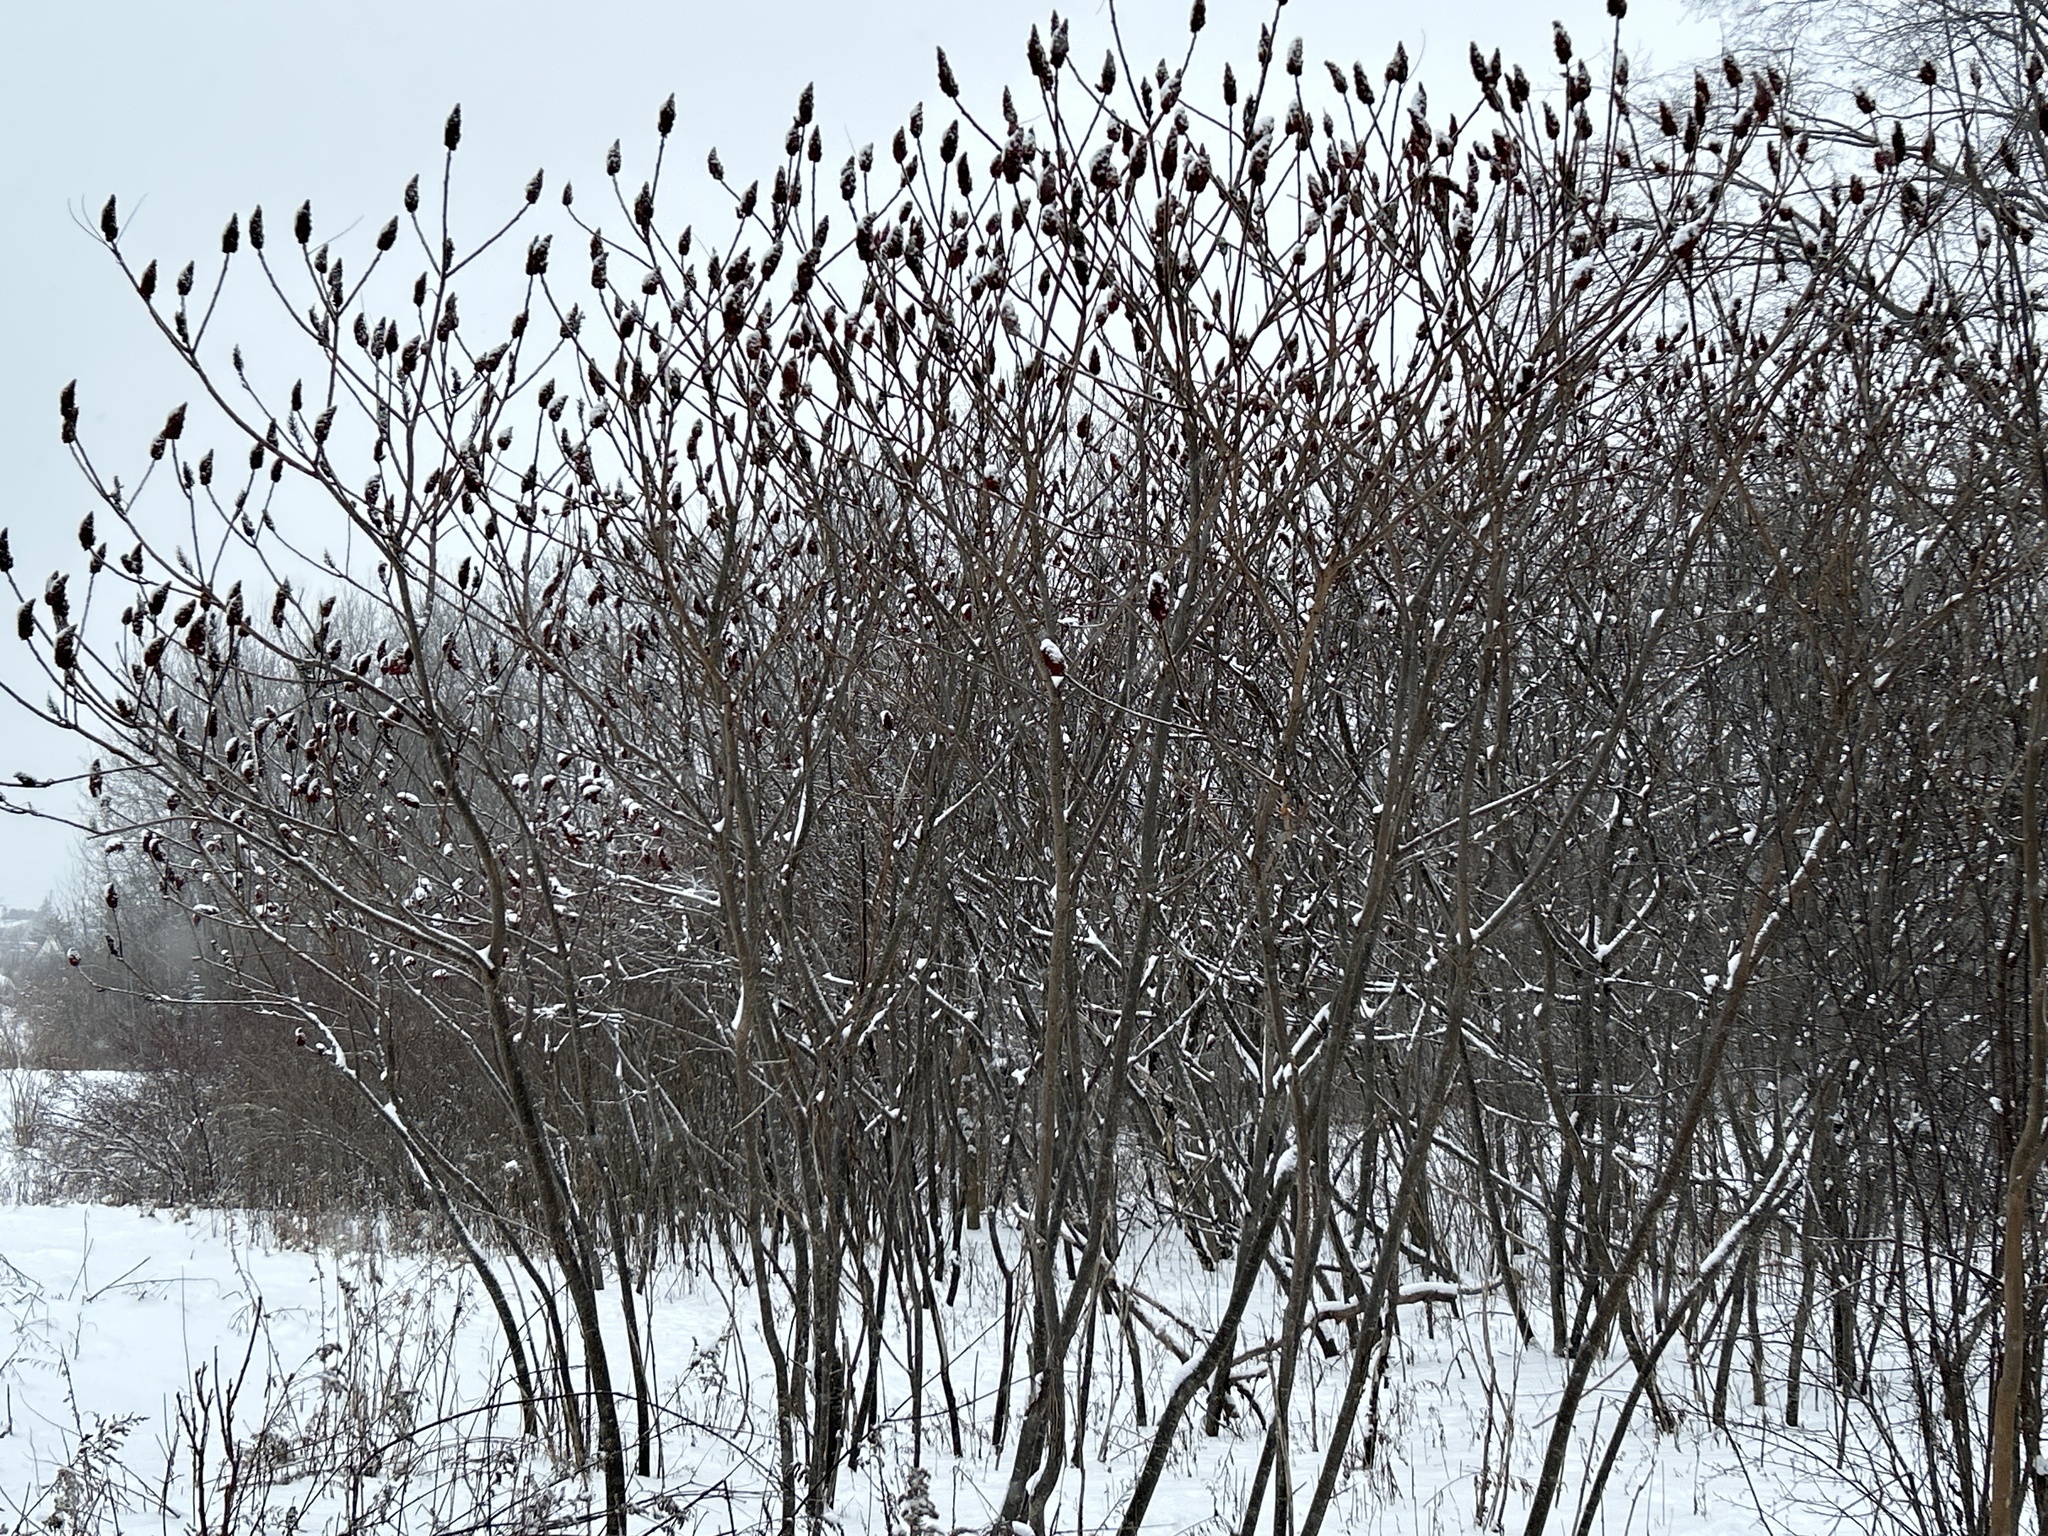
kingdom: Plantae
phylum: Tracheophyta
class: Magnoliopsida
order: Sapindales
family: Anacardiaceae
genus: Rhus
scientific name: Rhus typhina
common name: Staghorn sumac
